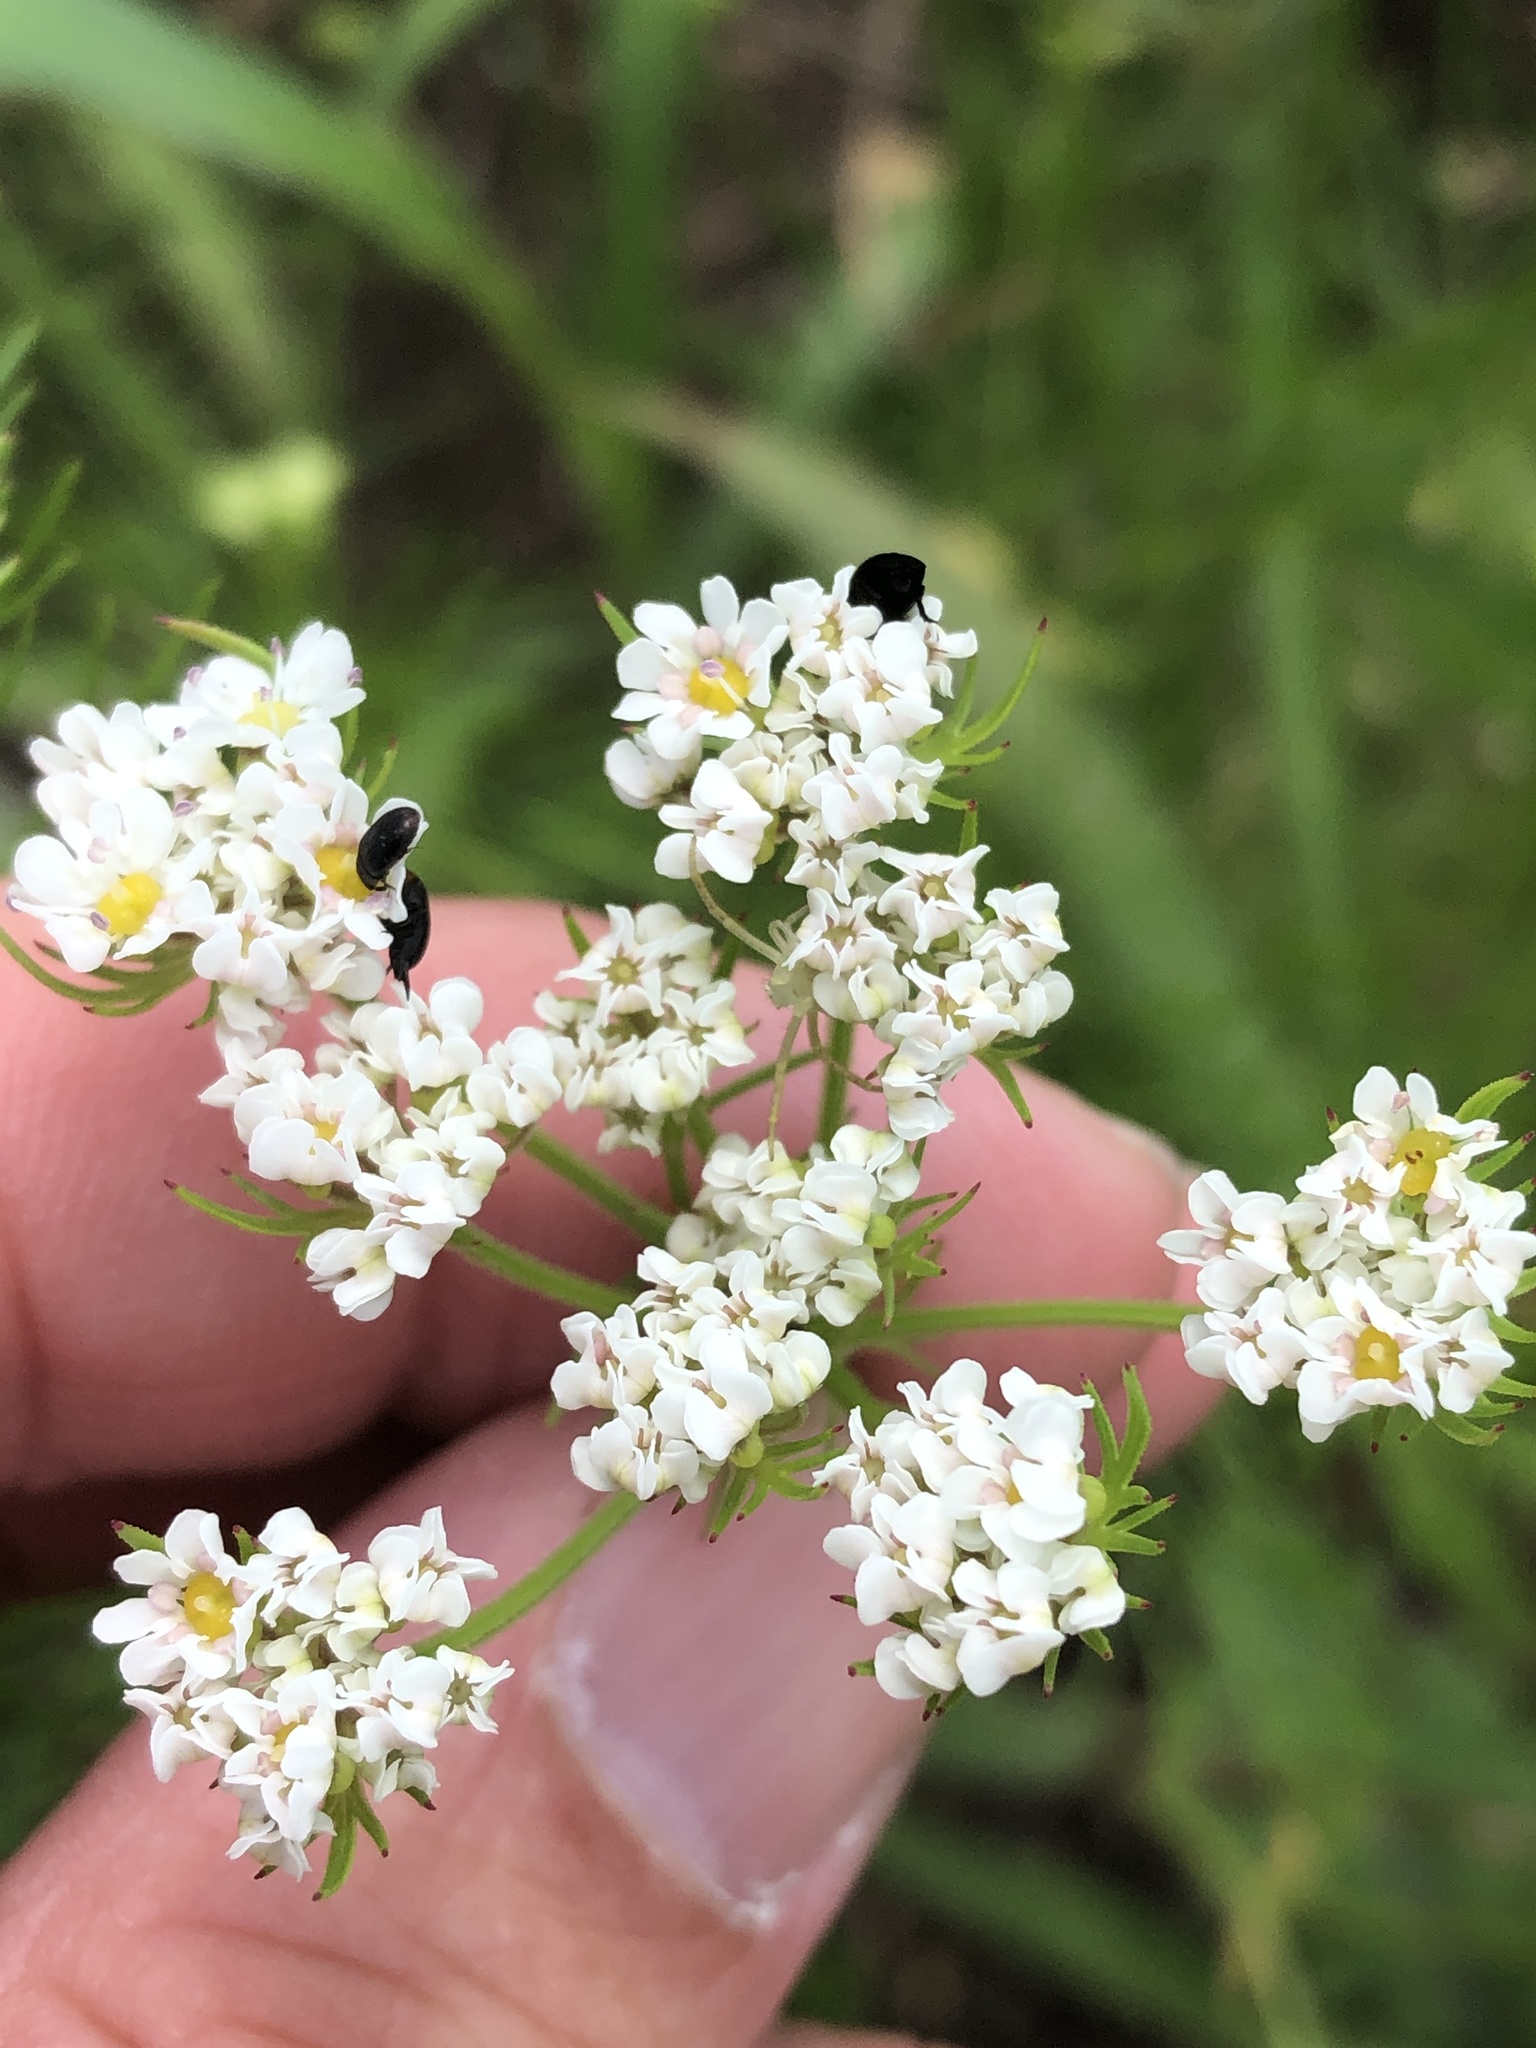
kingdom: Plantae
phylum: Tracheophyta
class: Magnoliopsida
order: Apiales
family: Apiaceae
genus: Atrema
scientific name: Atrema americanum
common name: Prairie-bishop
